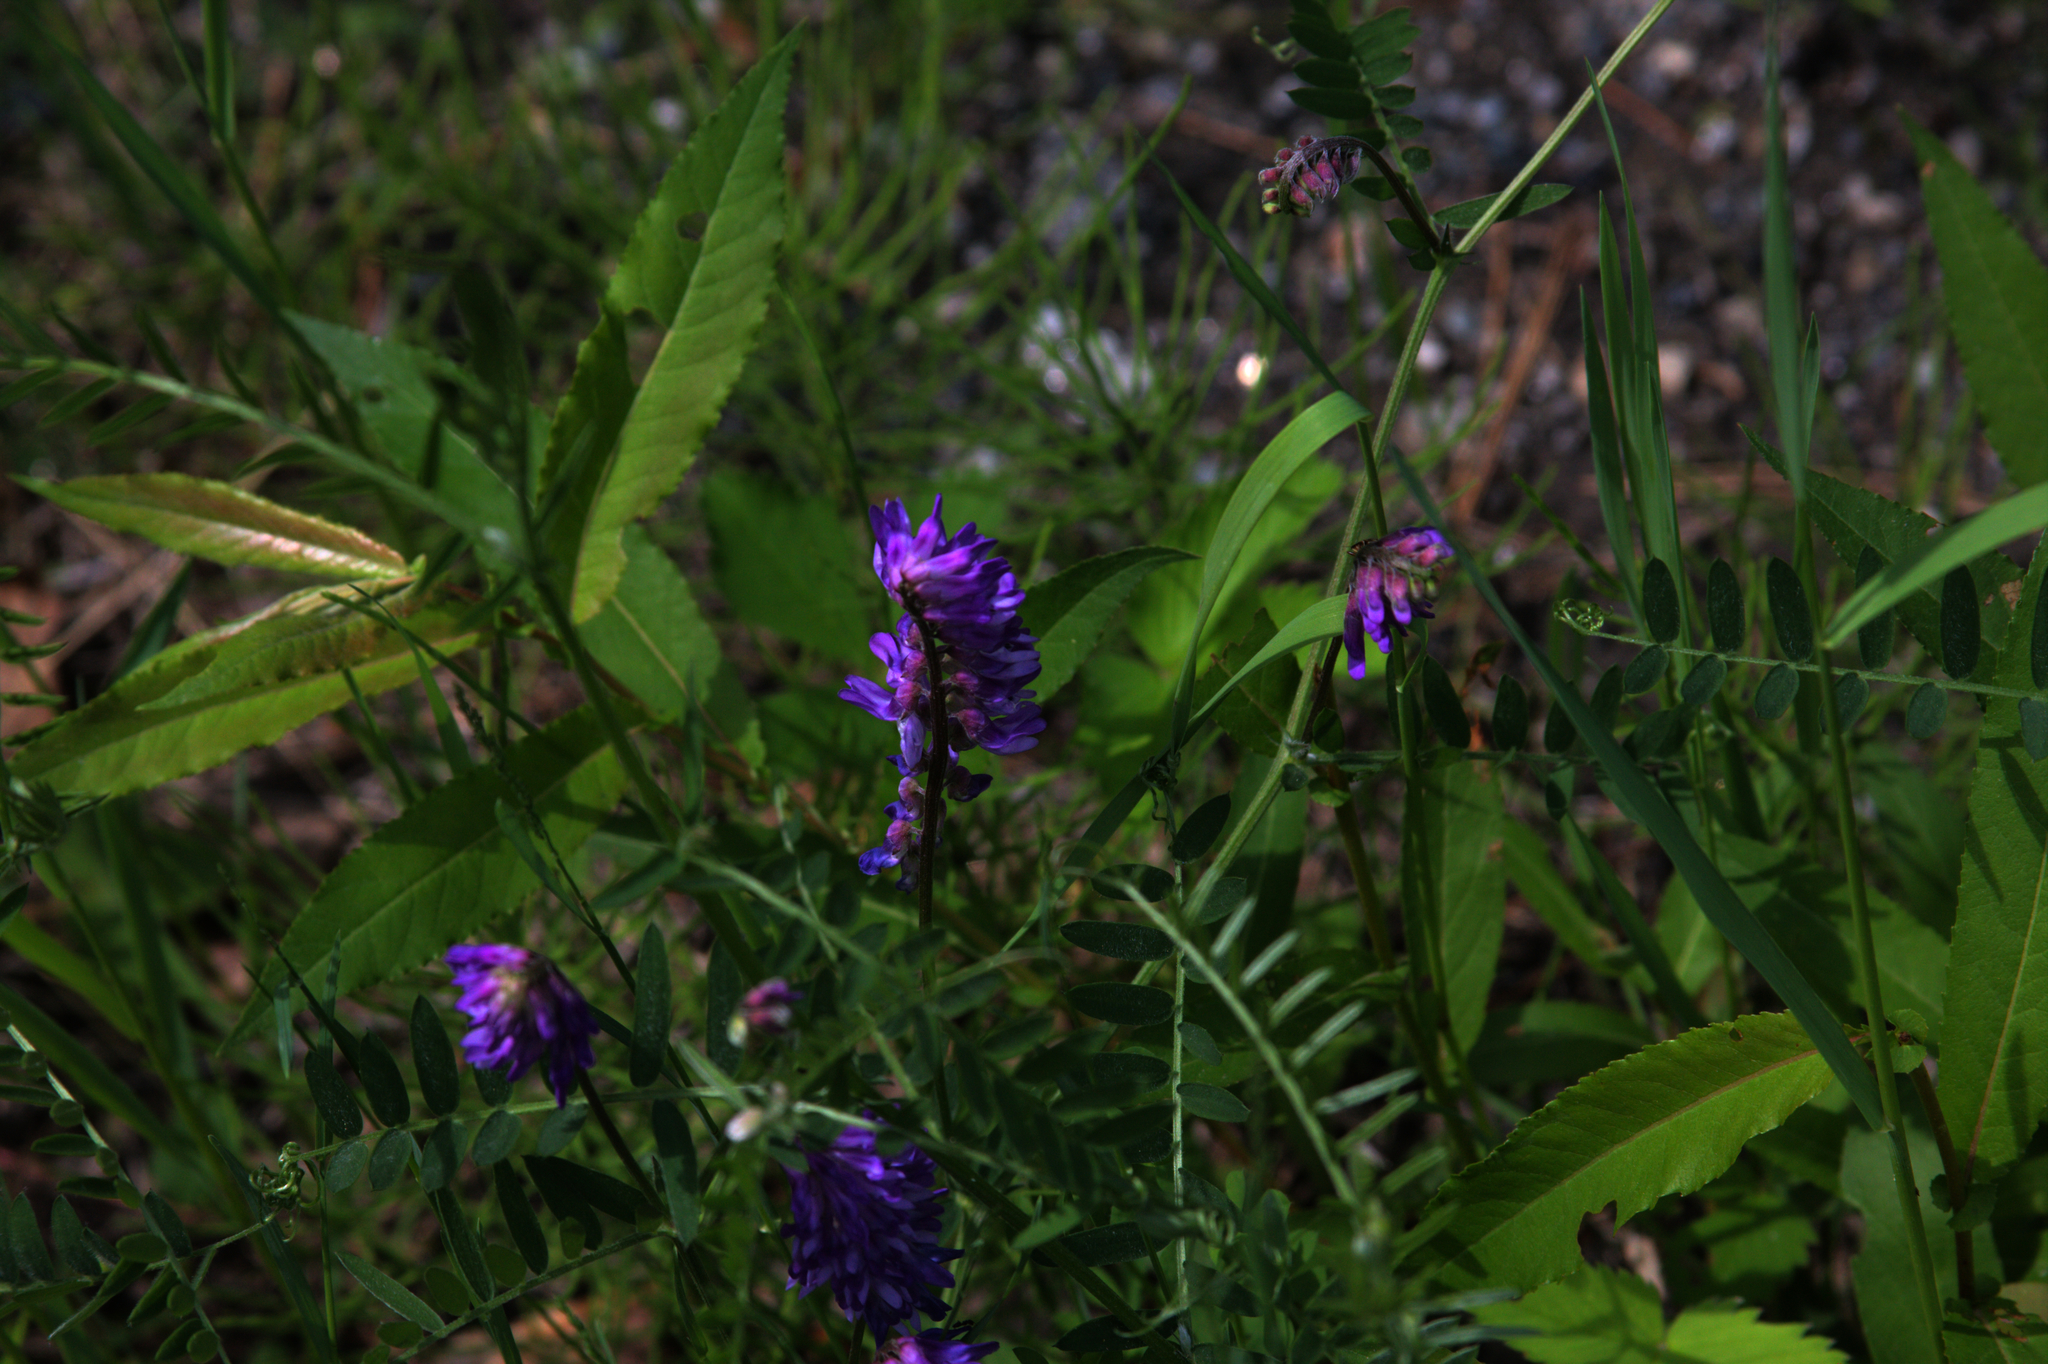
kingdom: Plantae
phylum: Tracheophyta
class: Magnoliopsida
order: Fabales
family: Fabaceae
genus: Vicia
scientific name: Vicia cracca
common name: Bird vetch
